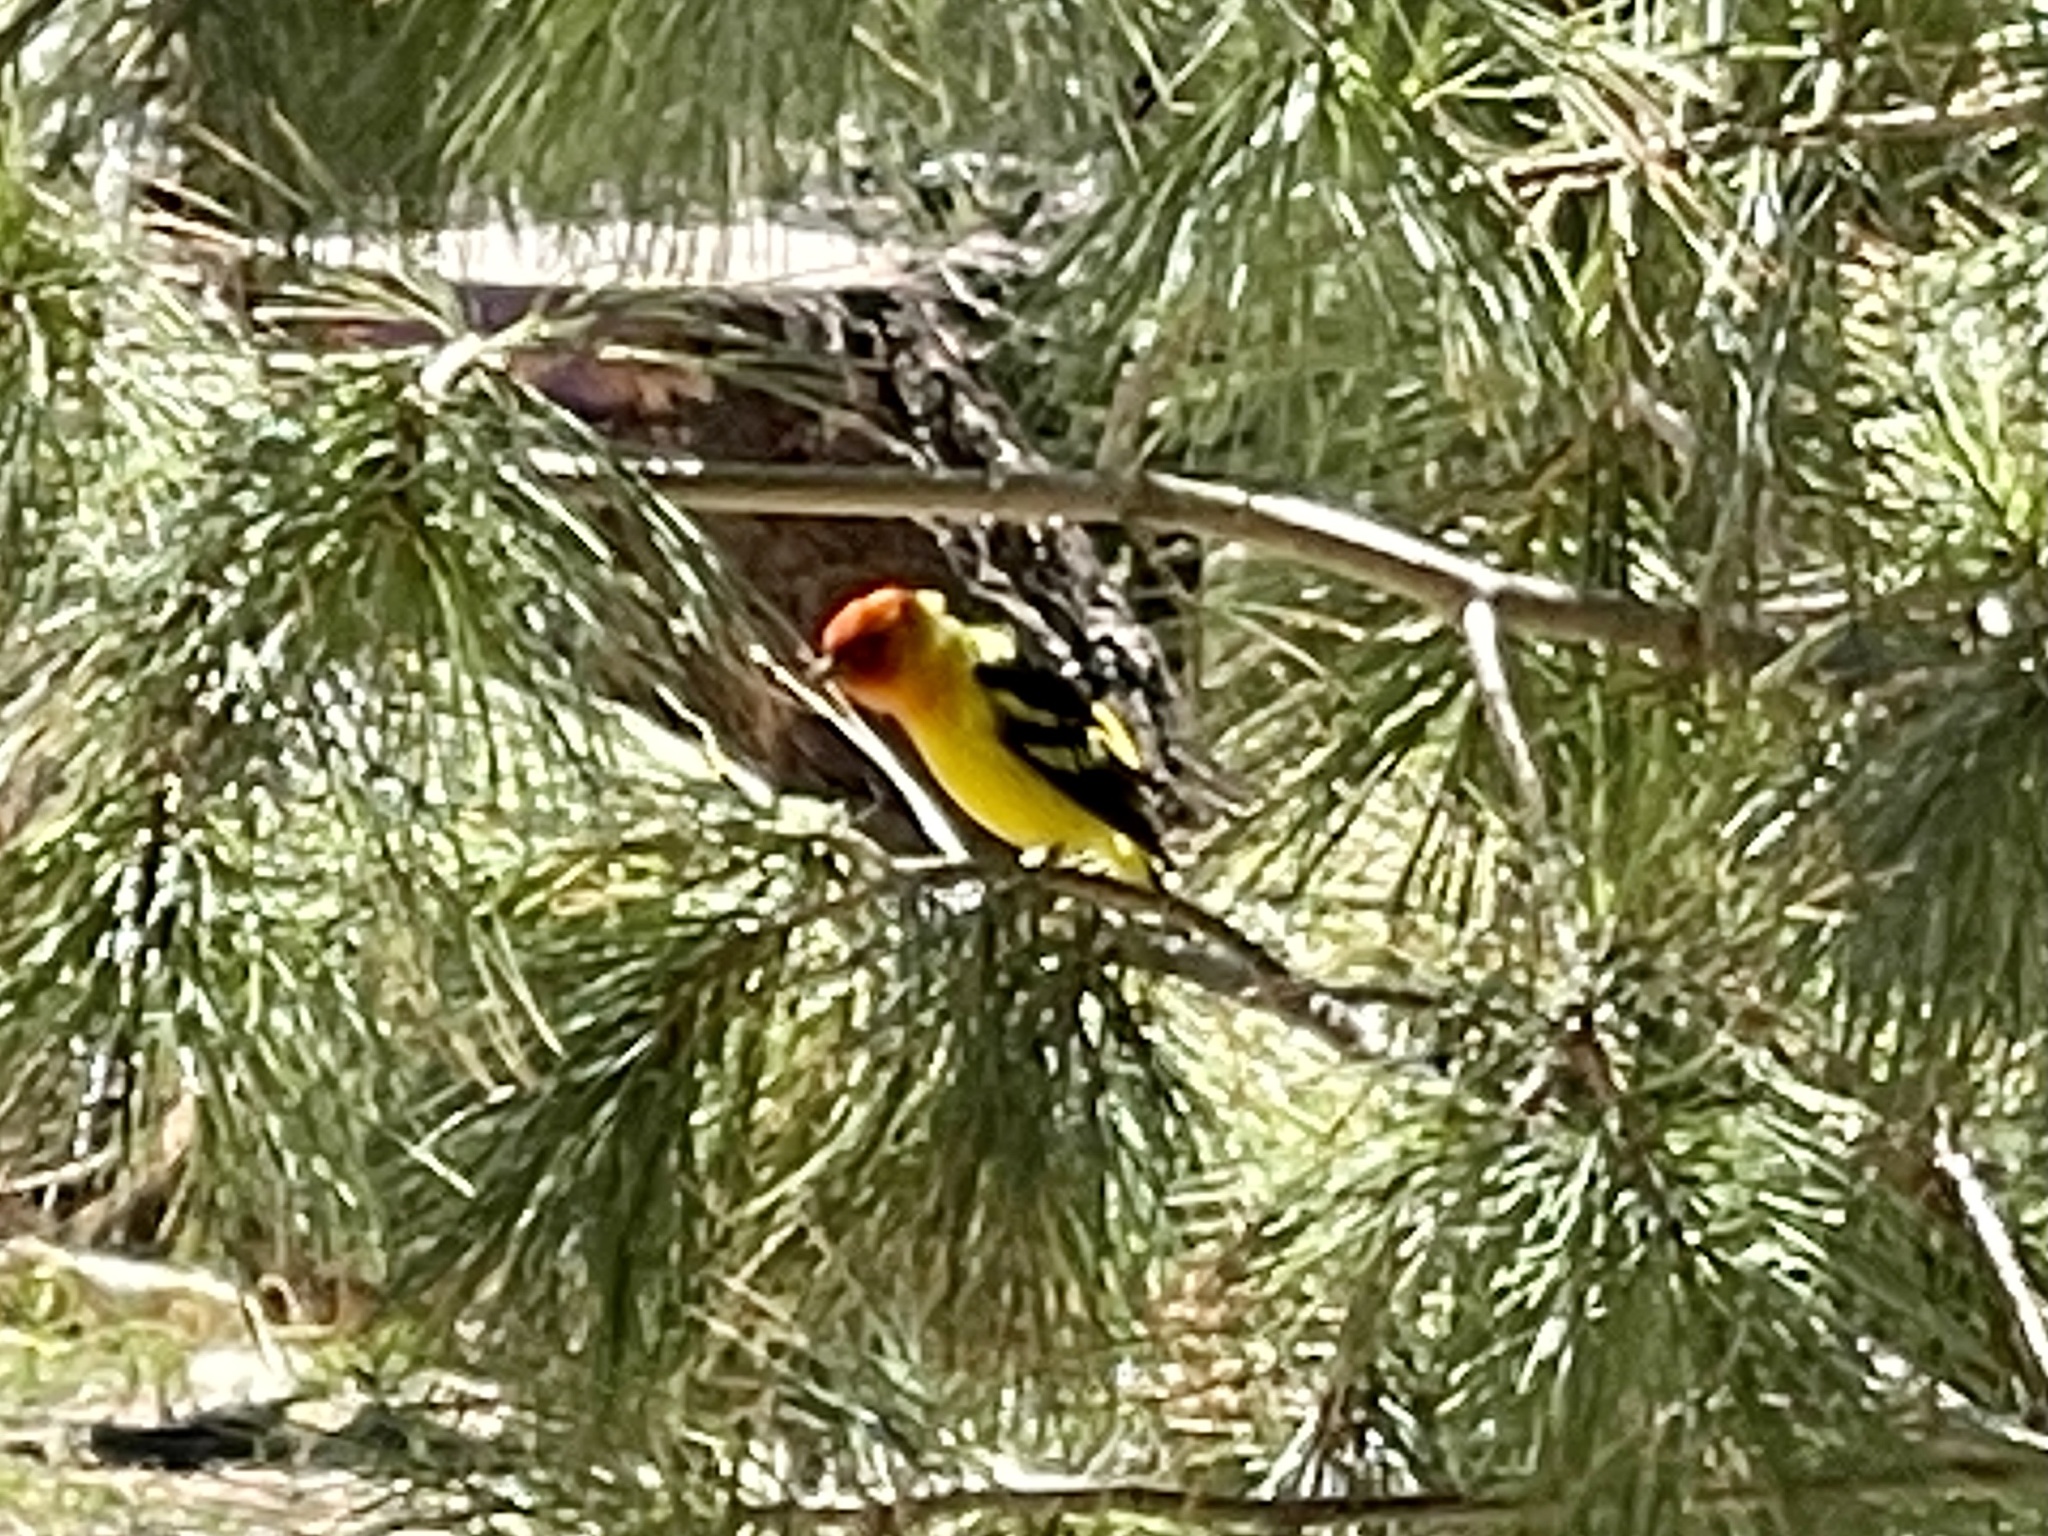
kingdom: Animalia
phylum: Chordata
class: Aves
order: Passeriformes
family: Cardinalidae
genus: Piranga
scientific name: Piranga ludoviciana
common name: Western tanager
